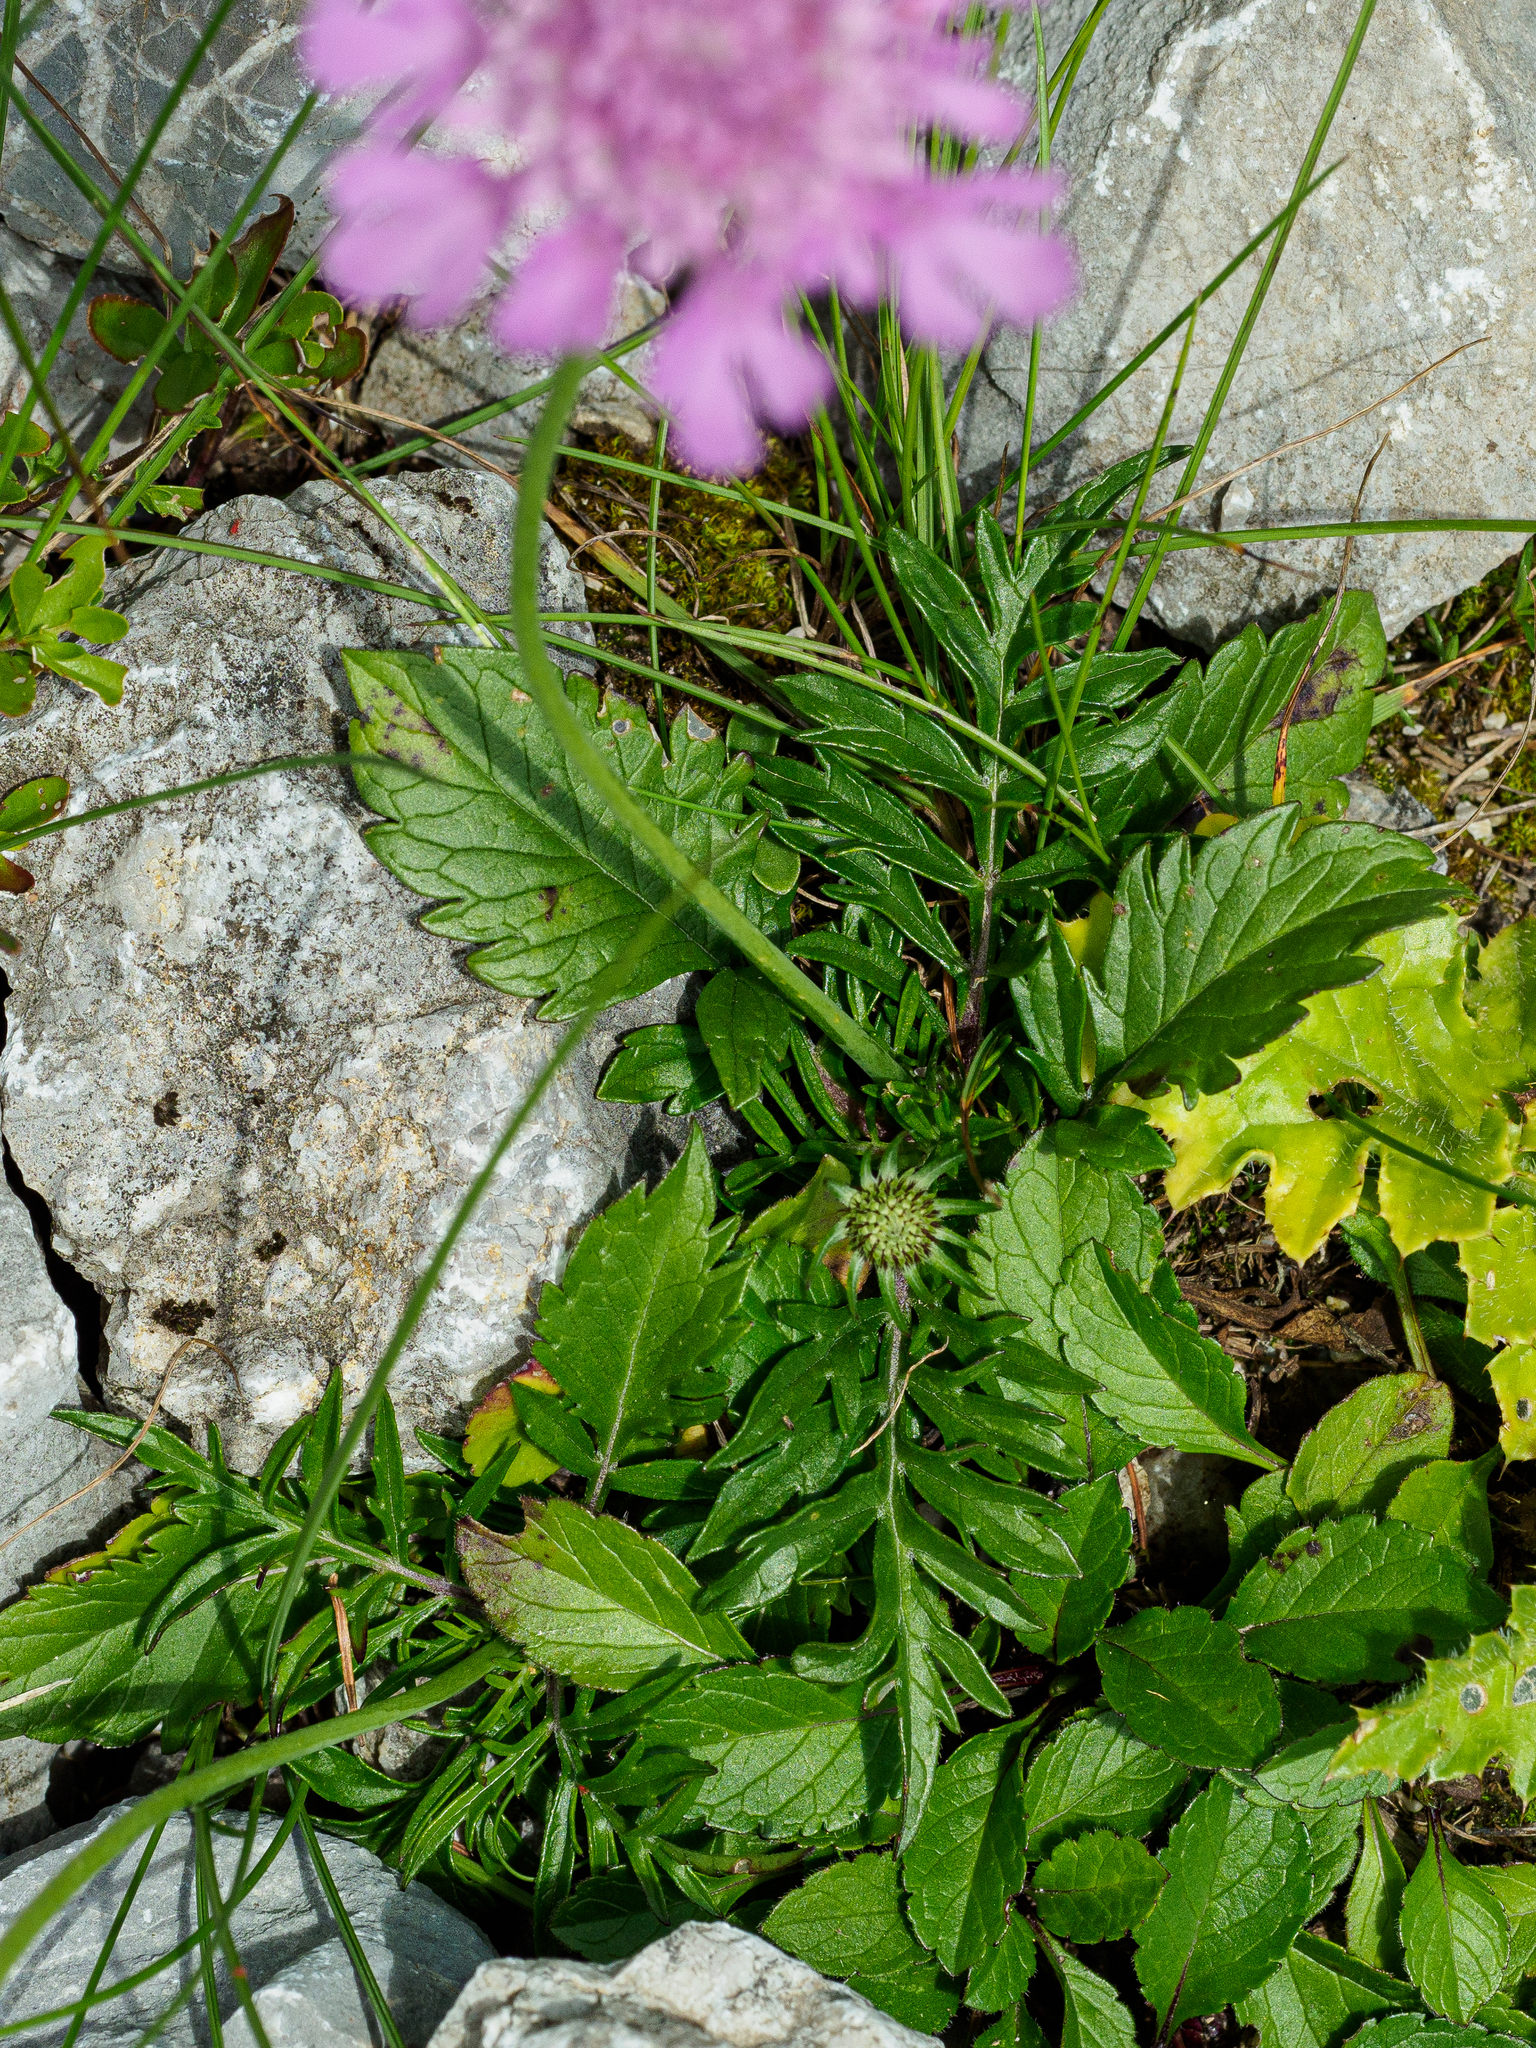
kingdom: Plantae
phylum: Tracheophyta
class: Magnoliopsida
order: Dipsacales
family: Caprifoliaceae
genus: Scabiosa
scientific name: Scabiosa lucida
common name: Shining scabious
